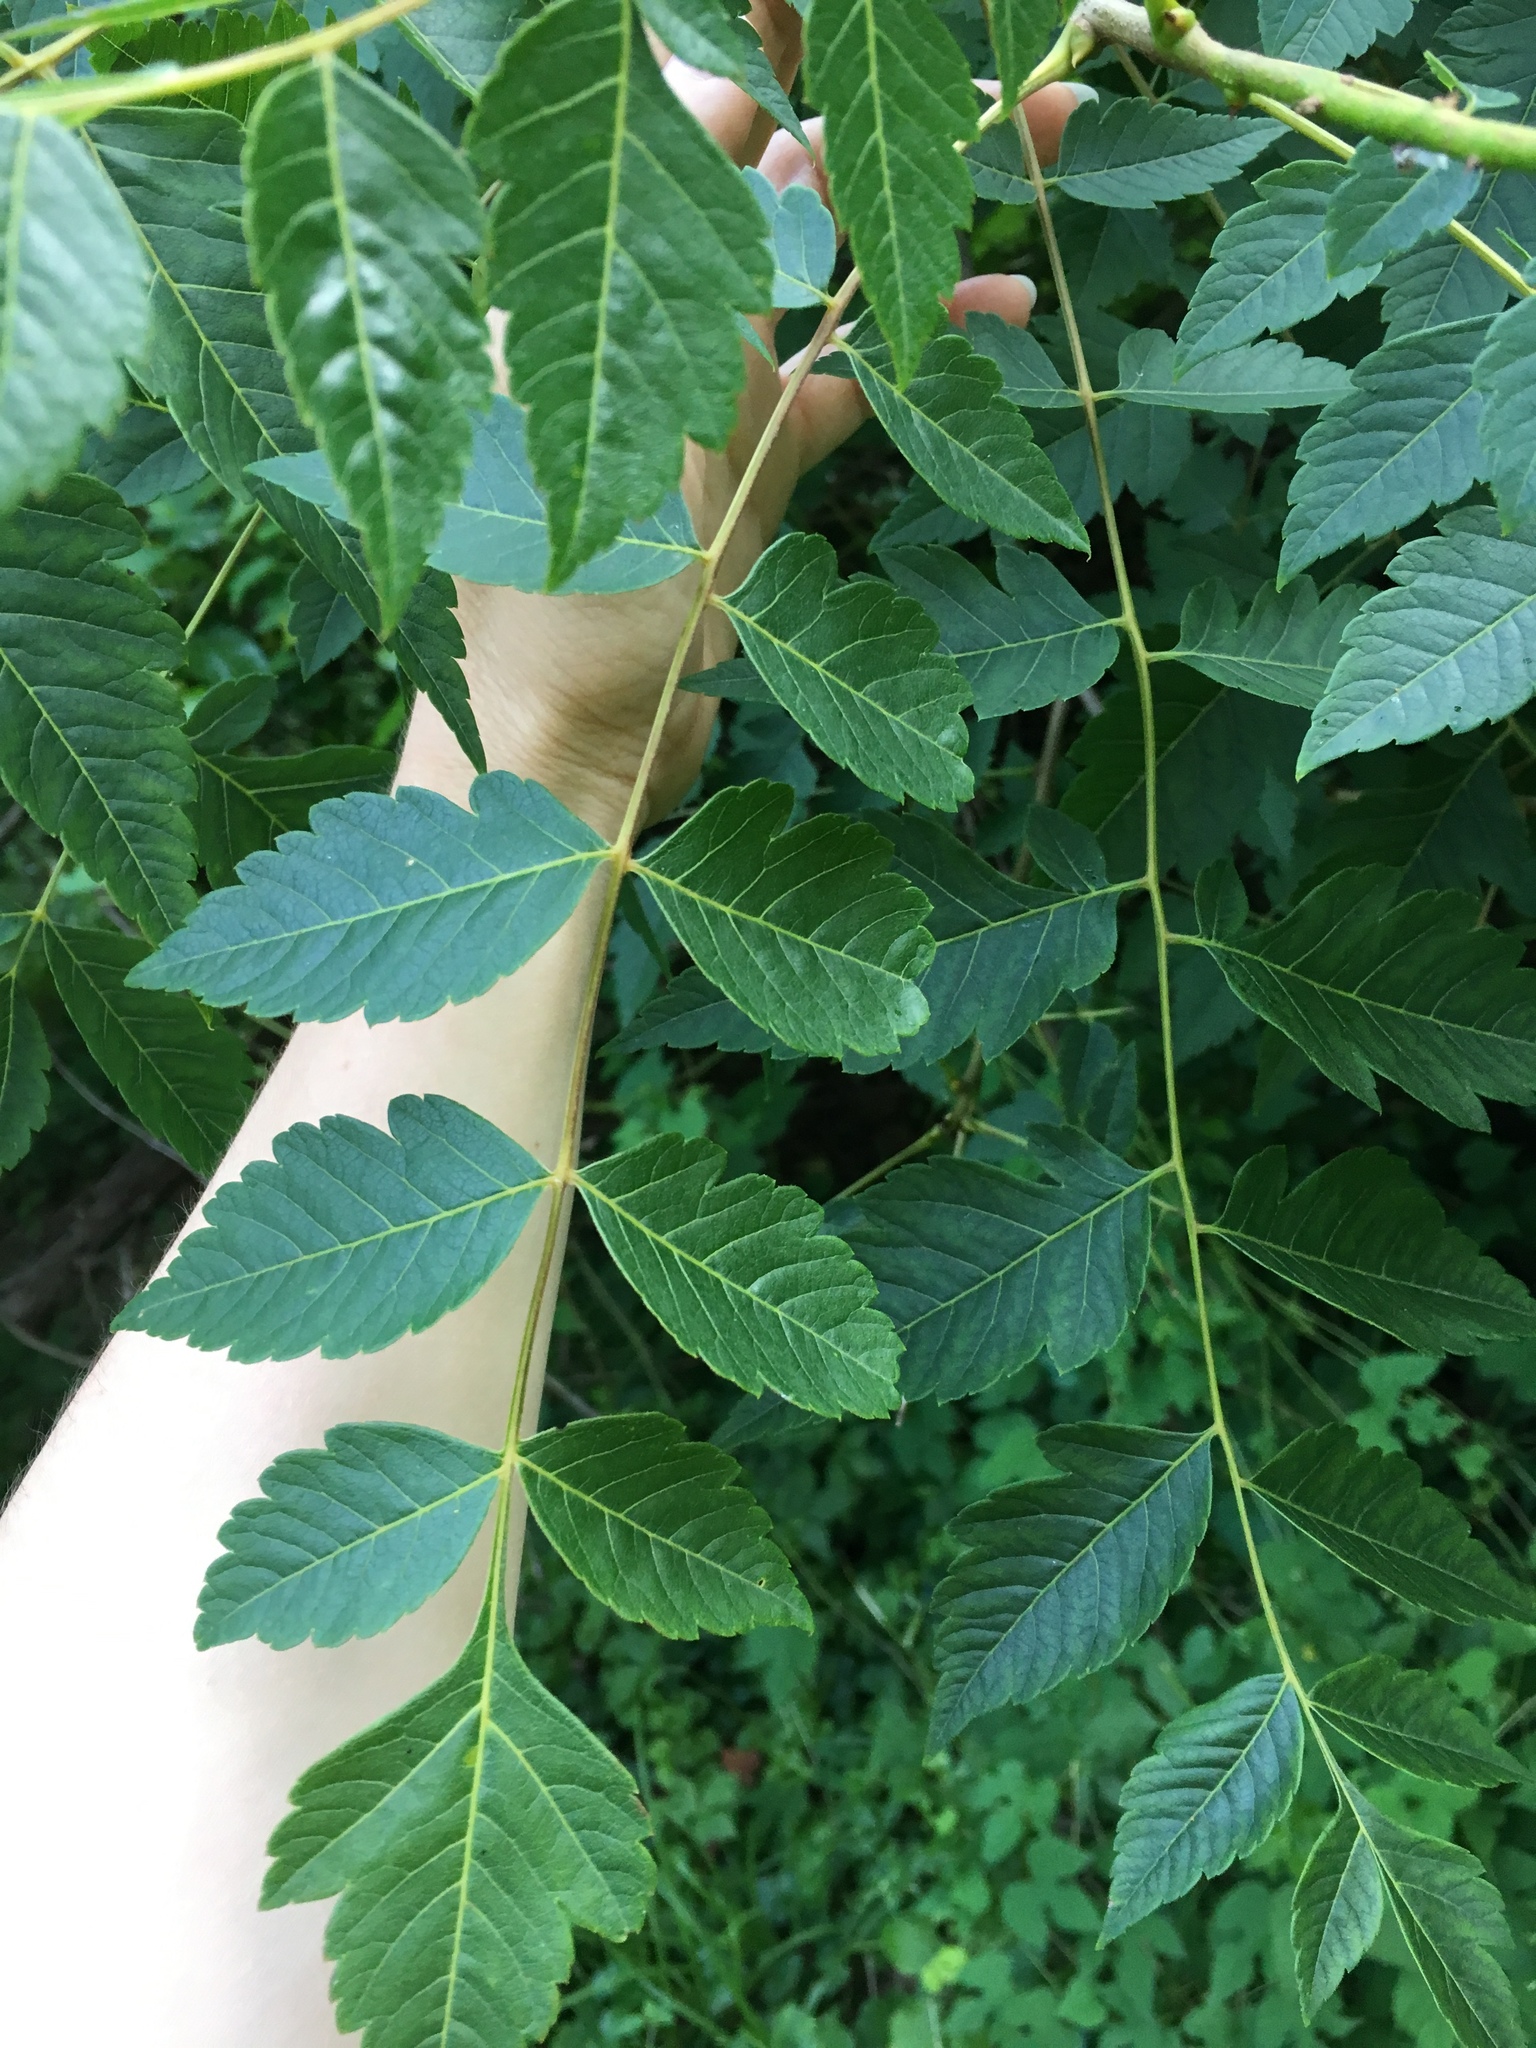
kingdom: Plantae
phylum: Tracheophyta
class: Magnoliopsida
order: Sapindales
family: Sapindaceae
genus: Koelreuteria
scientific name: Koelreuteria paniculata
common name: Pride-of-india
